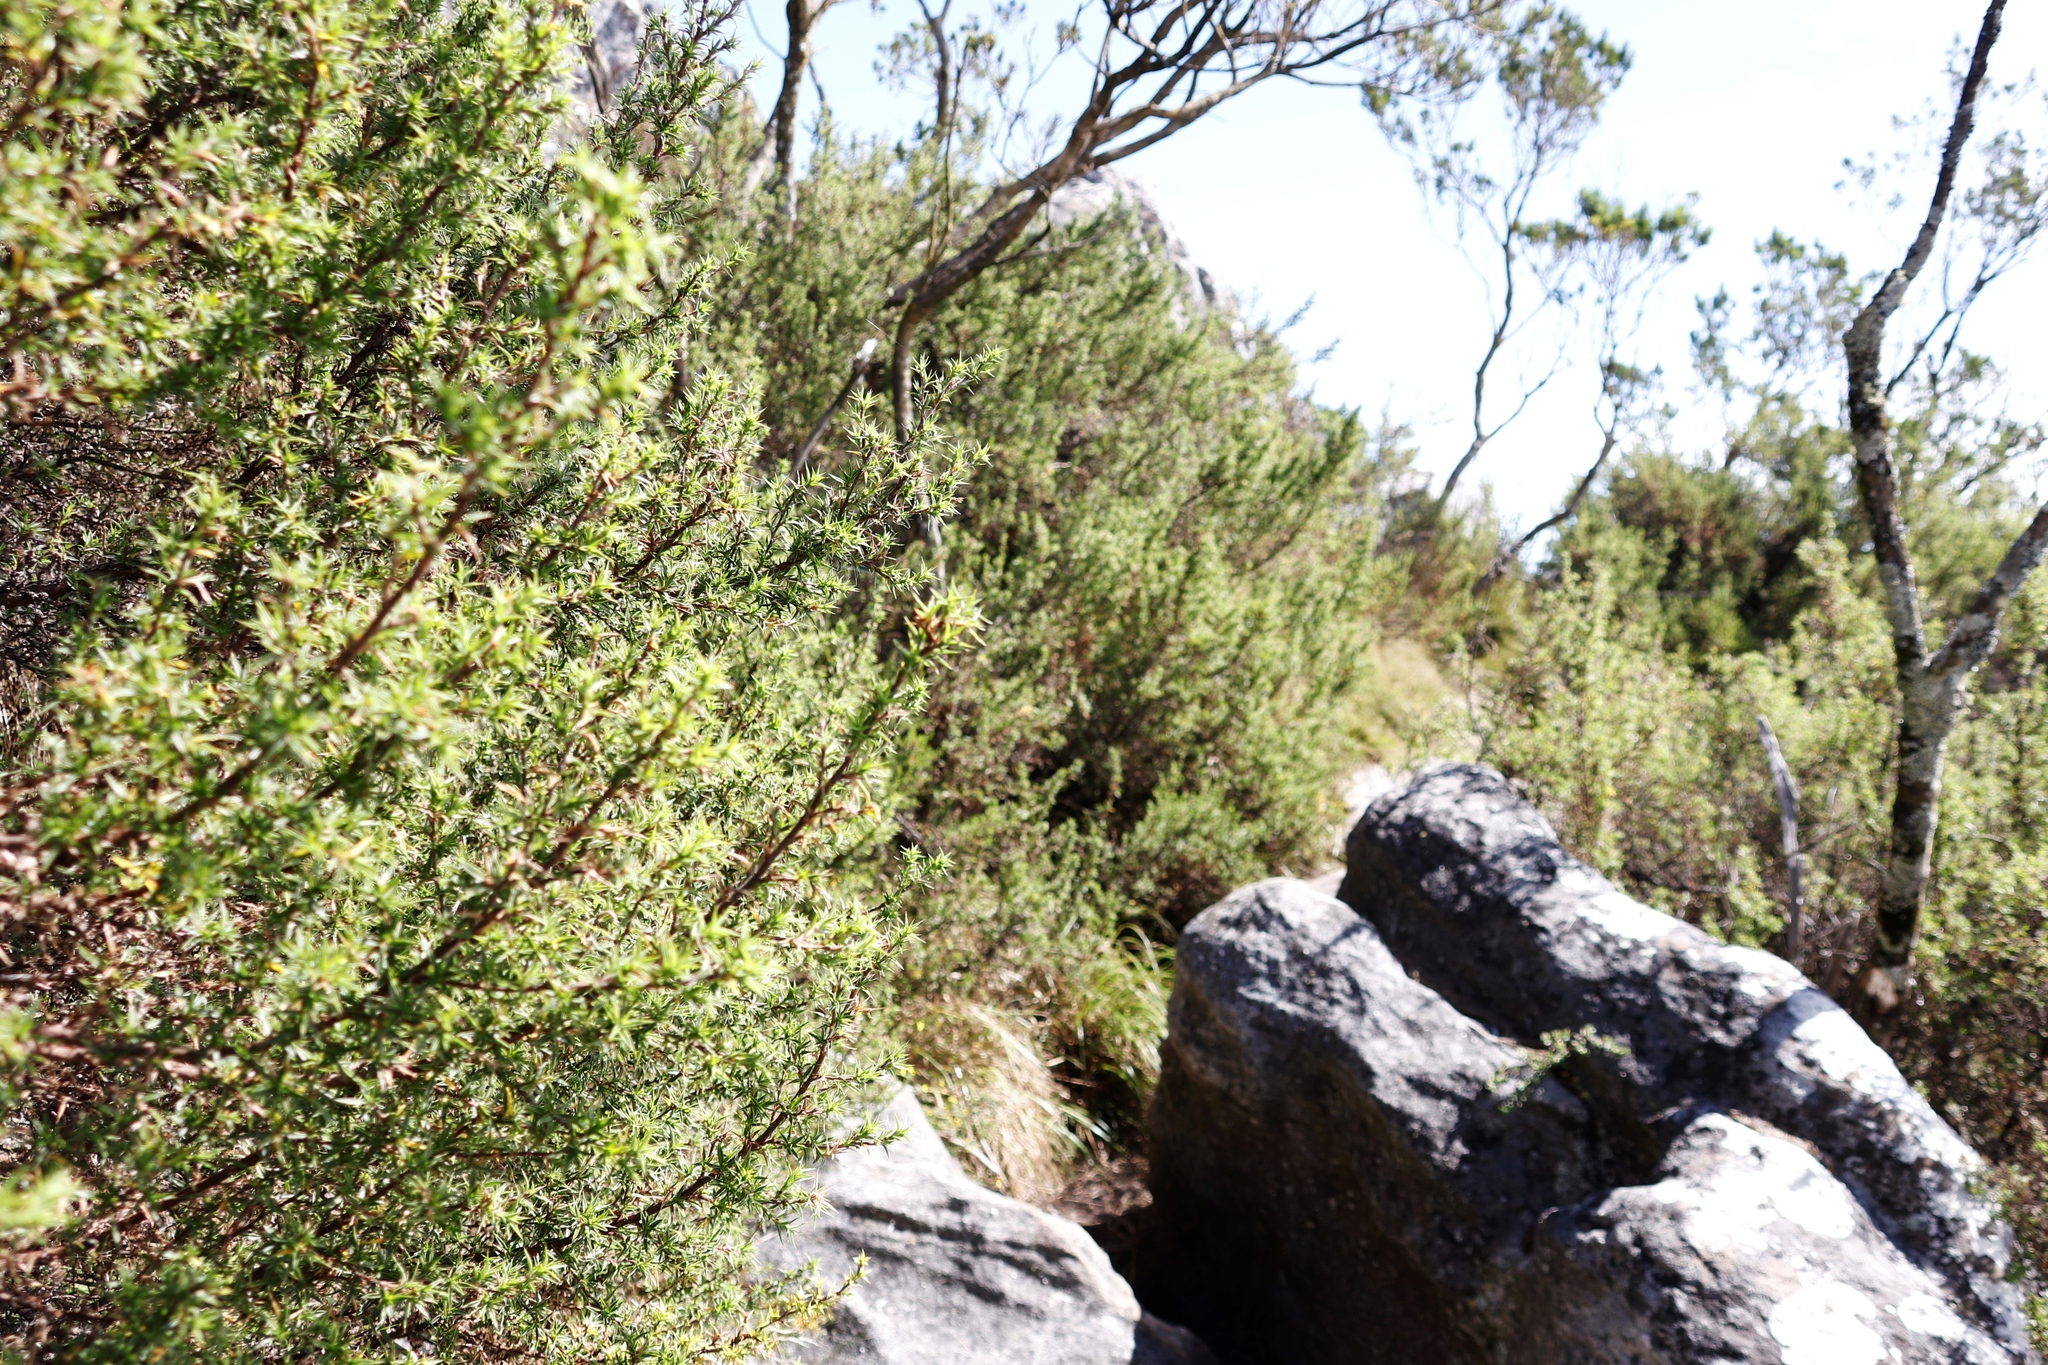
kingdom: Plantae
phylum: Tracheophyta
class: Magnoliopsida
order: Rosales
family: Rosaceae
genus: Cliffortia
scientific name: Cliffortia ruscifolia
